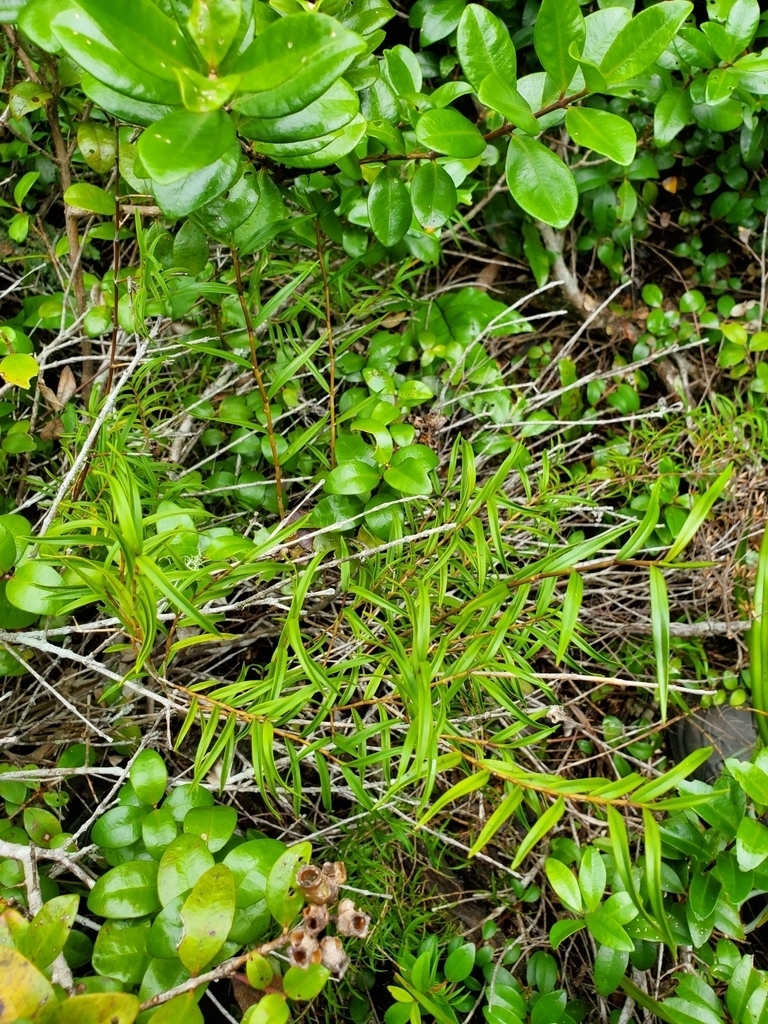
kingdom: Plantae
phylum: Tracheophyta
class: Liliopsida
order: Asparagales
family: Orchidaceae
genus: Dendrobium
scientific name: Dendrobium cunninghamii
